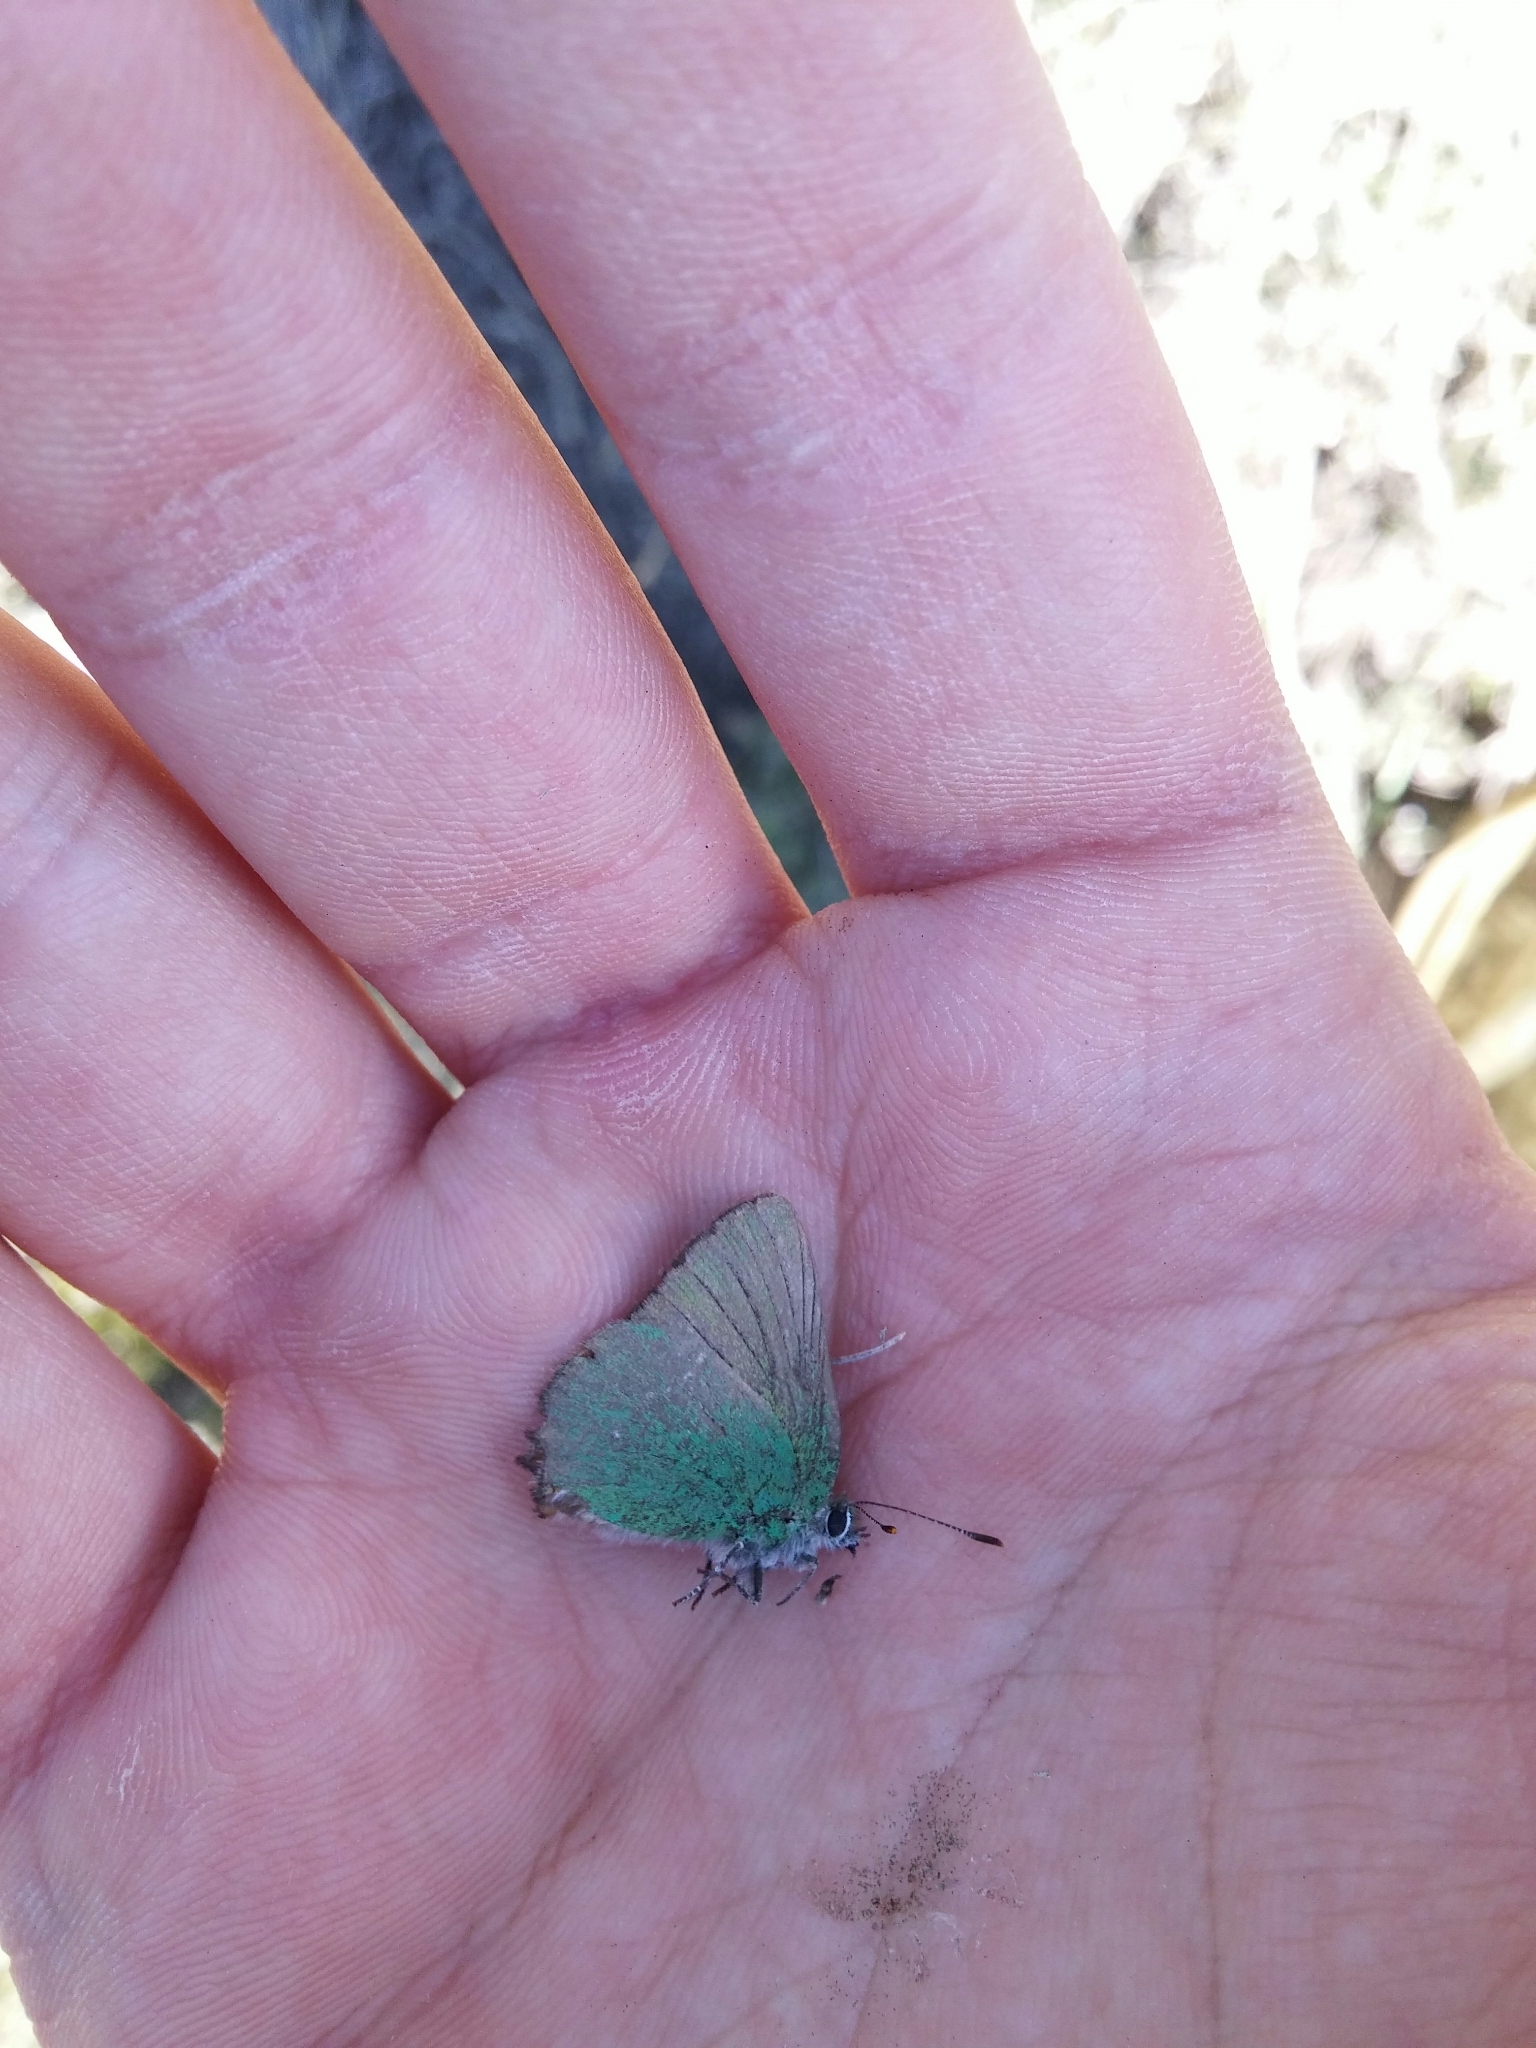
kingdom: Animalia
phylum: Arthropoda
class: Insecta
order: Lepidoptera
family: Lycaenidae
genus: Callophrys
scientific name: Callophrys rubi
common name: Green hairstreak
